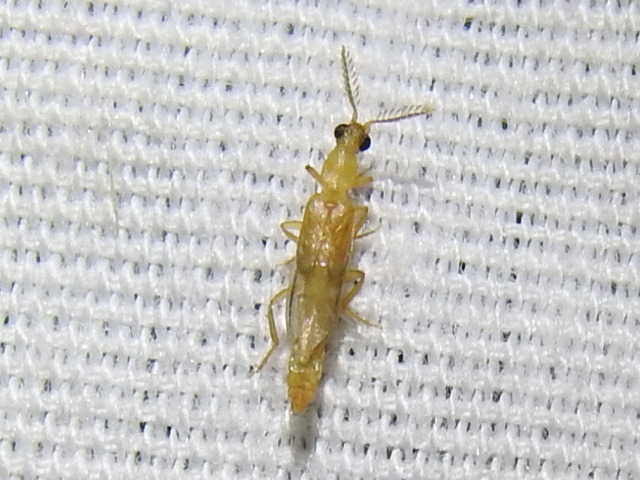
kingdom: Animalia
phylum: Arthropoda
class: Insecta
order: Coleoptera
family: Phengodidae
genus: Cenophengus
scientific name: Cenophengus pallidus
